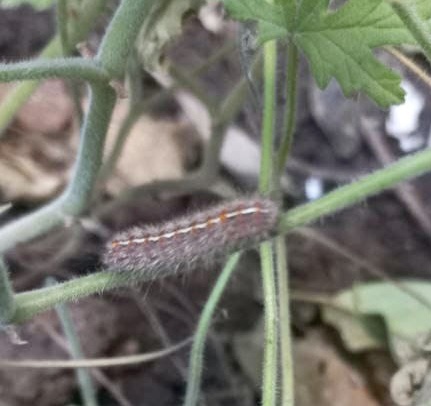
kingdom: Animalia
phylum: Arthropoda
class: Insecta
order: Lepidoptera
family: Erebidae
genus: Paracles
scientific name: Paracles fusca
